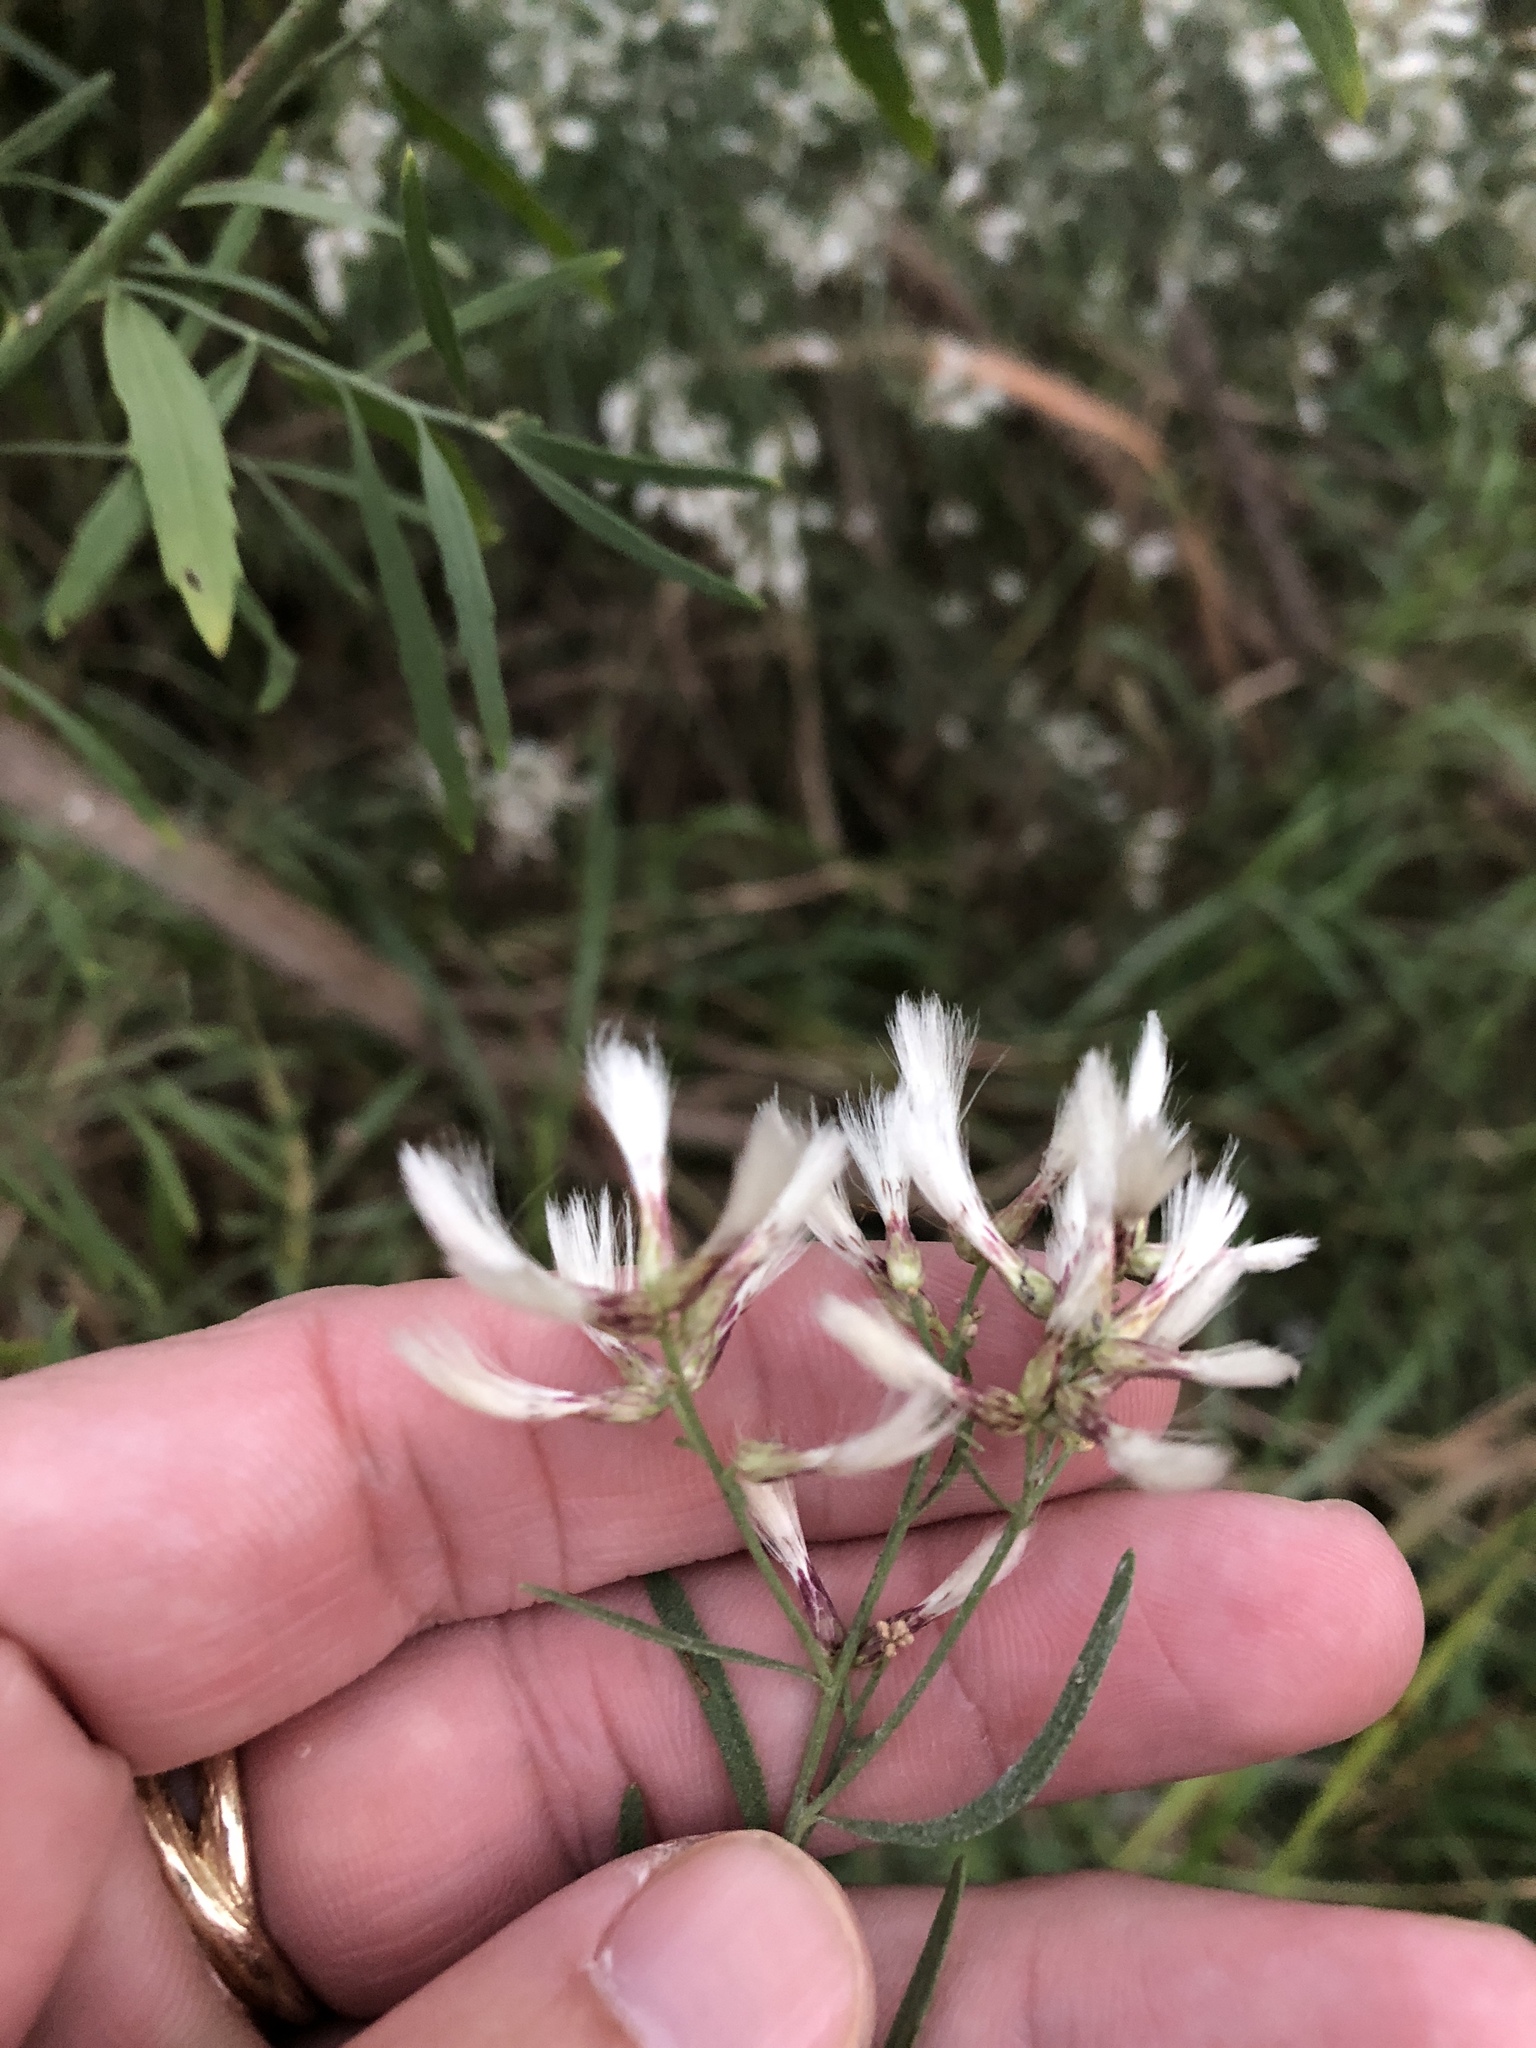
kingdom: Plantae
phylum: Tracheophyta
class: Magnoliopsida
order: Asterales
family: Asteraceae
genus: Baccharis
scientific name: Baccharis neglecta
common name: Roosevelt-weed
